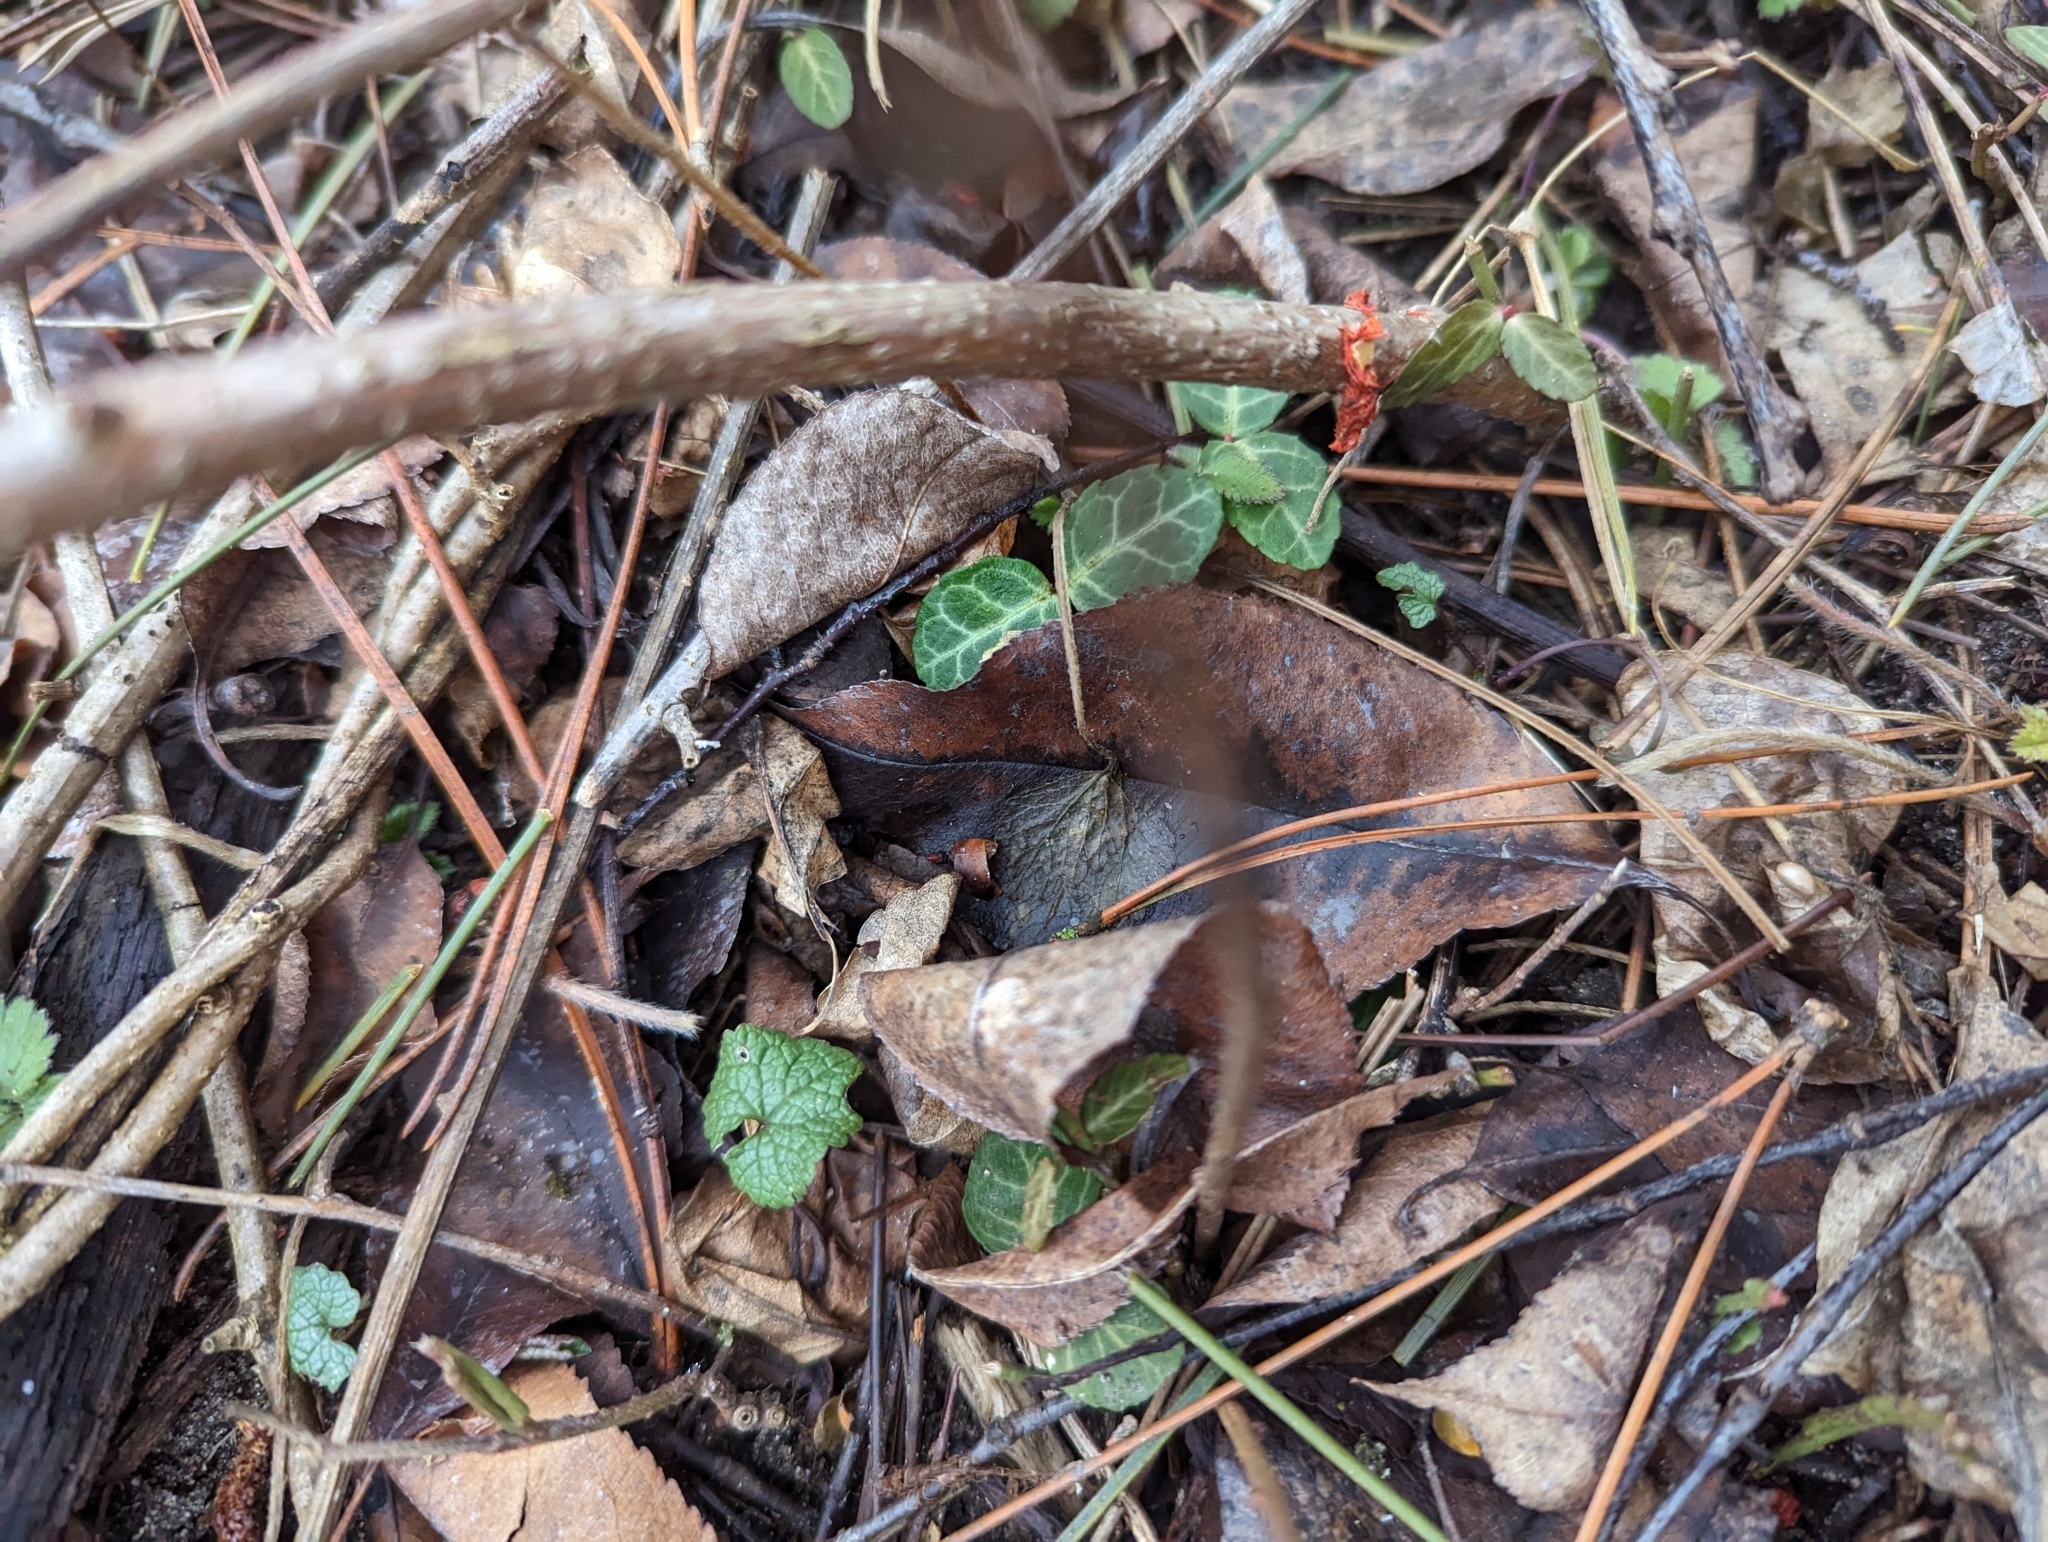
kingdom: Plantae
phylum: Tracheophyta
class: Magnoliopsida
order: Celastrales
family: Celastraceae
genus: Euonymus
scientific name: Euonymus fortunei
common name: Climbing euonymus
